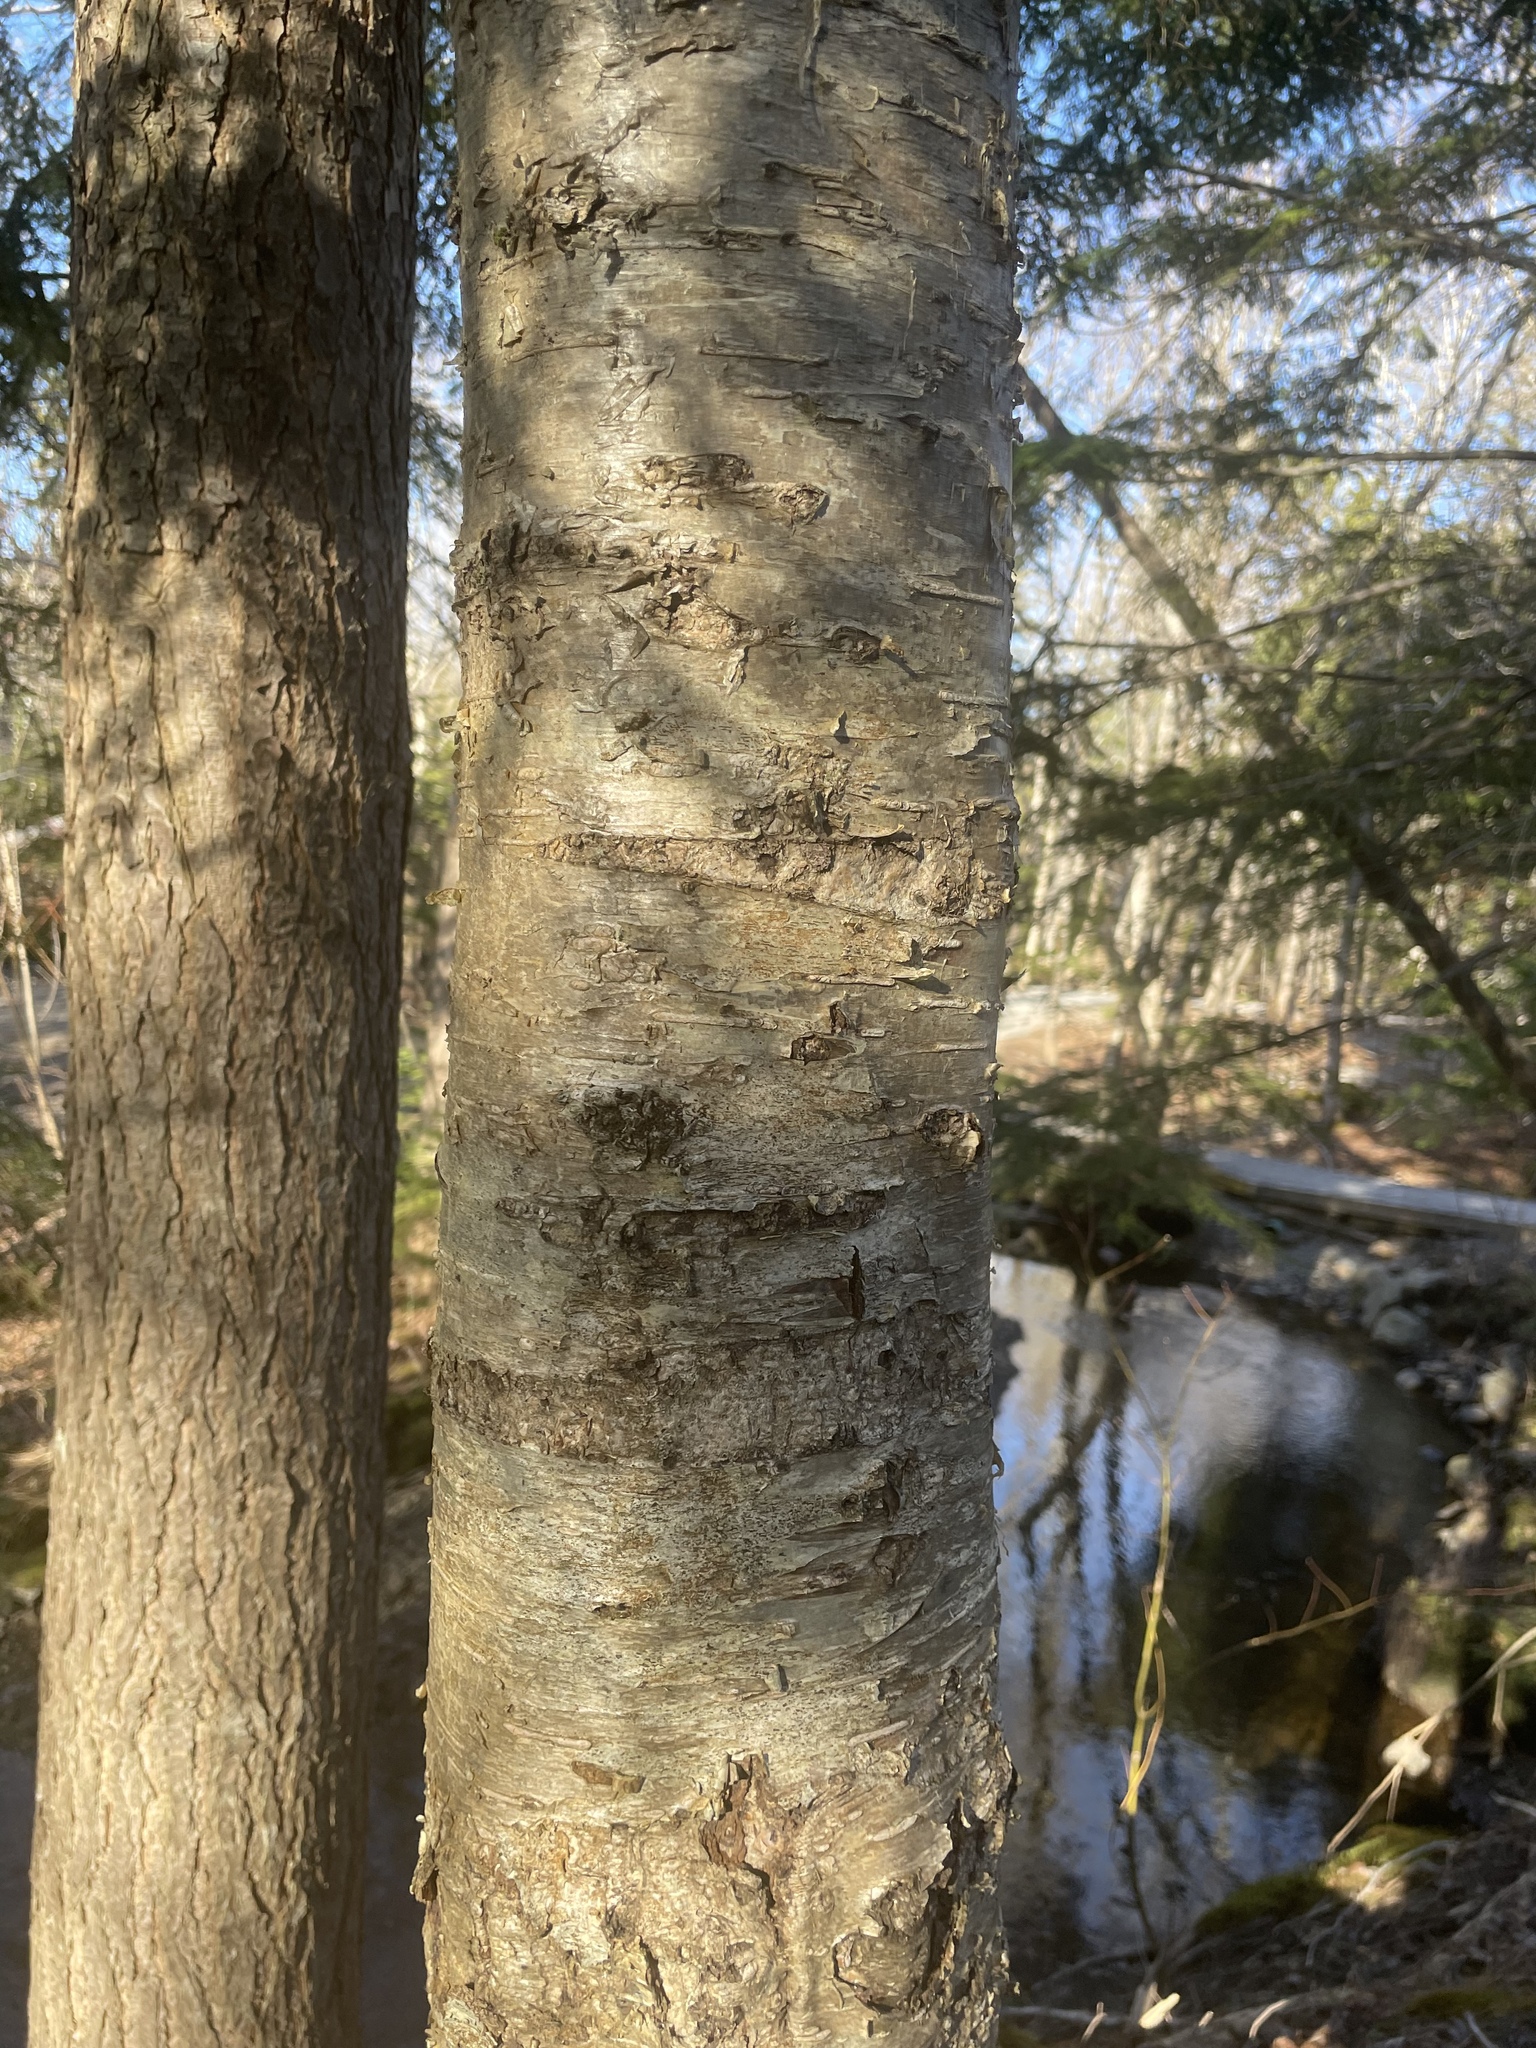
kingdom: Plantae
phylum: Tracheophyta
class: Magnoliopsida
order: Fagales
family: Betulaceae
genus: Betula
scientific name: Betula alleghaniensis
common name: Yellow birch
